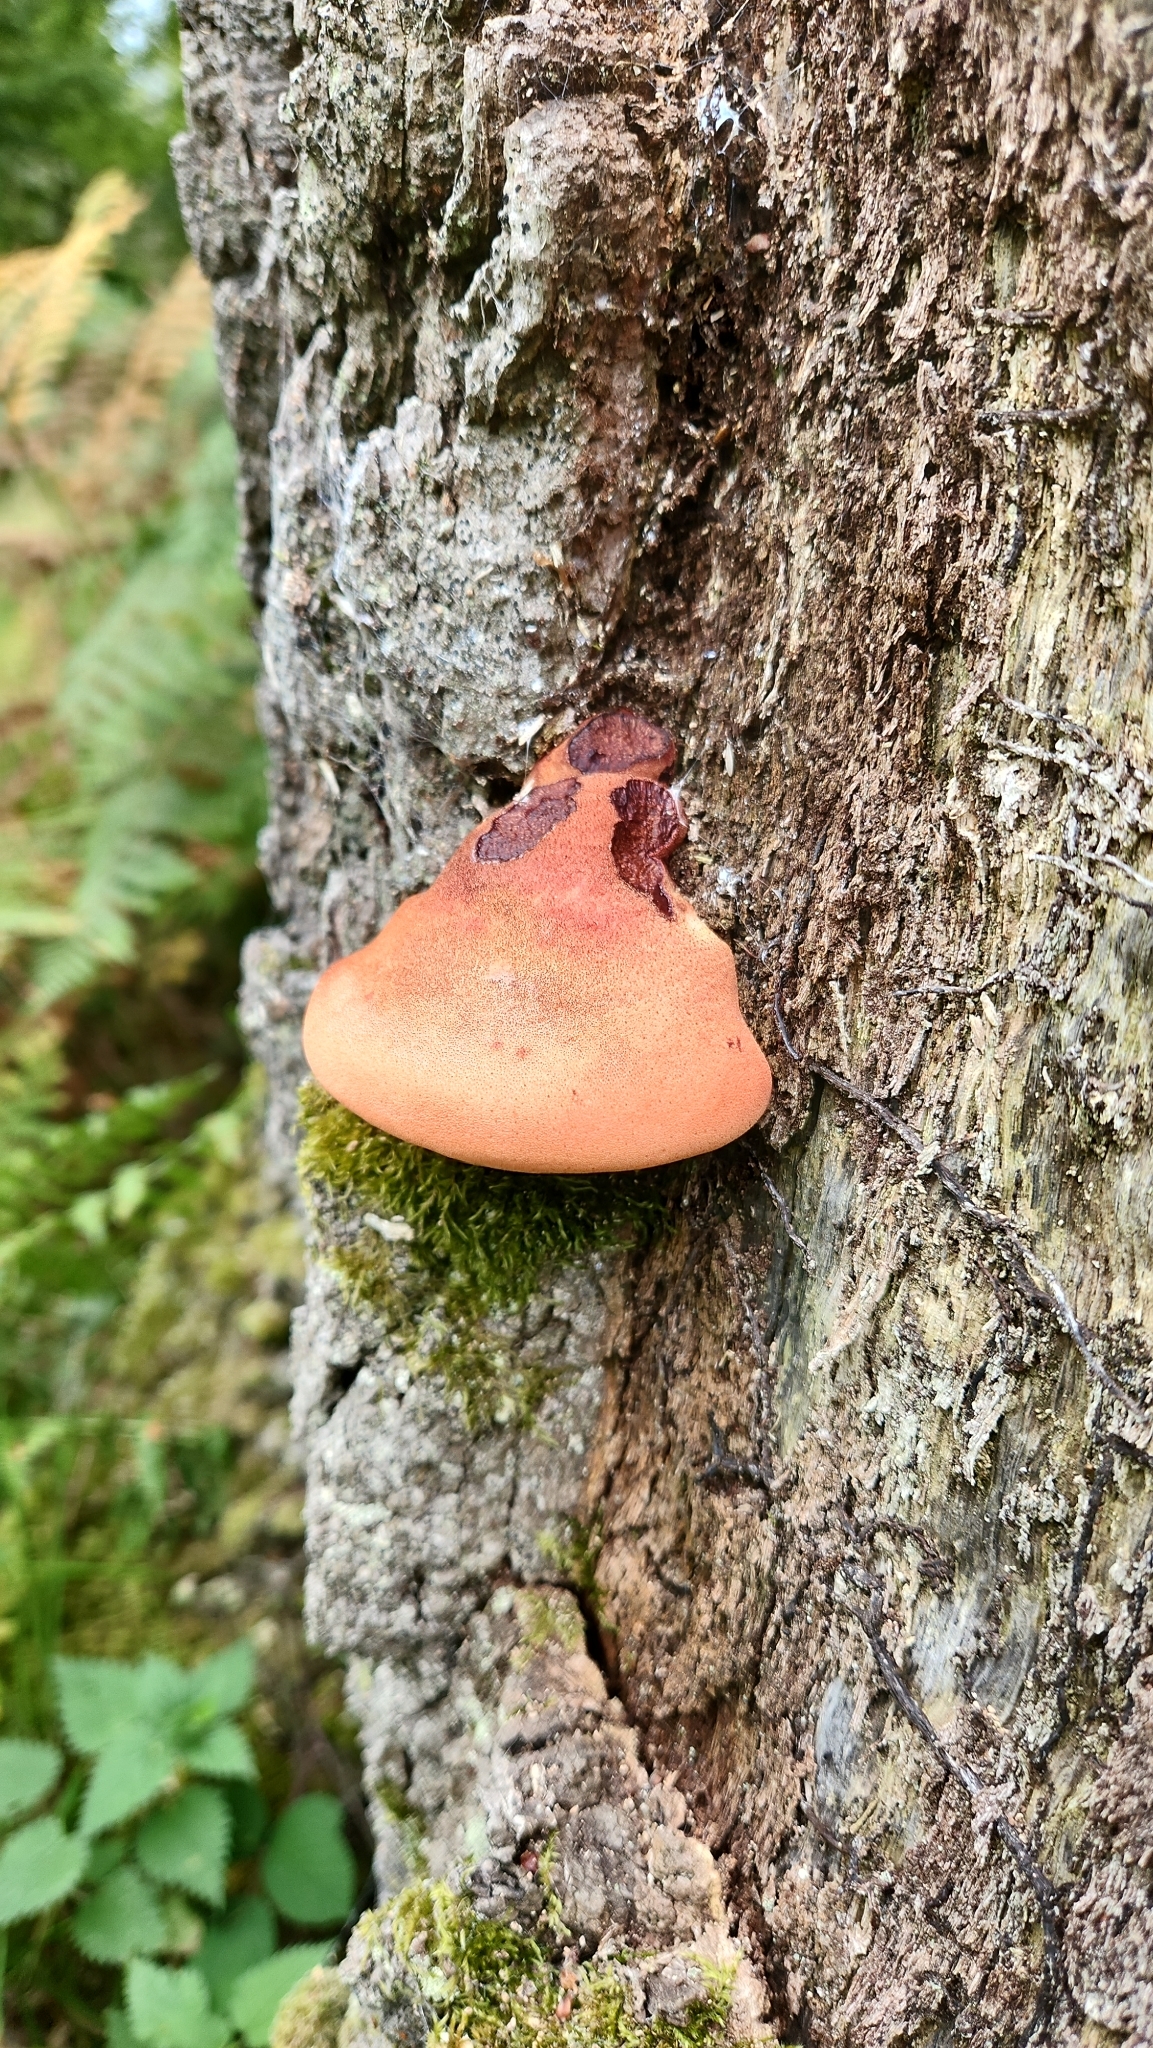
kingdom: Fungi
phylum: Basidiomycota
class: Agaricomycetes
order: Agaricales
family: Fistulinaceae
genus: Fistulina
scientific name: Fistulina hepatica
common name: Beef-steak fungus
